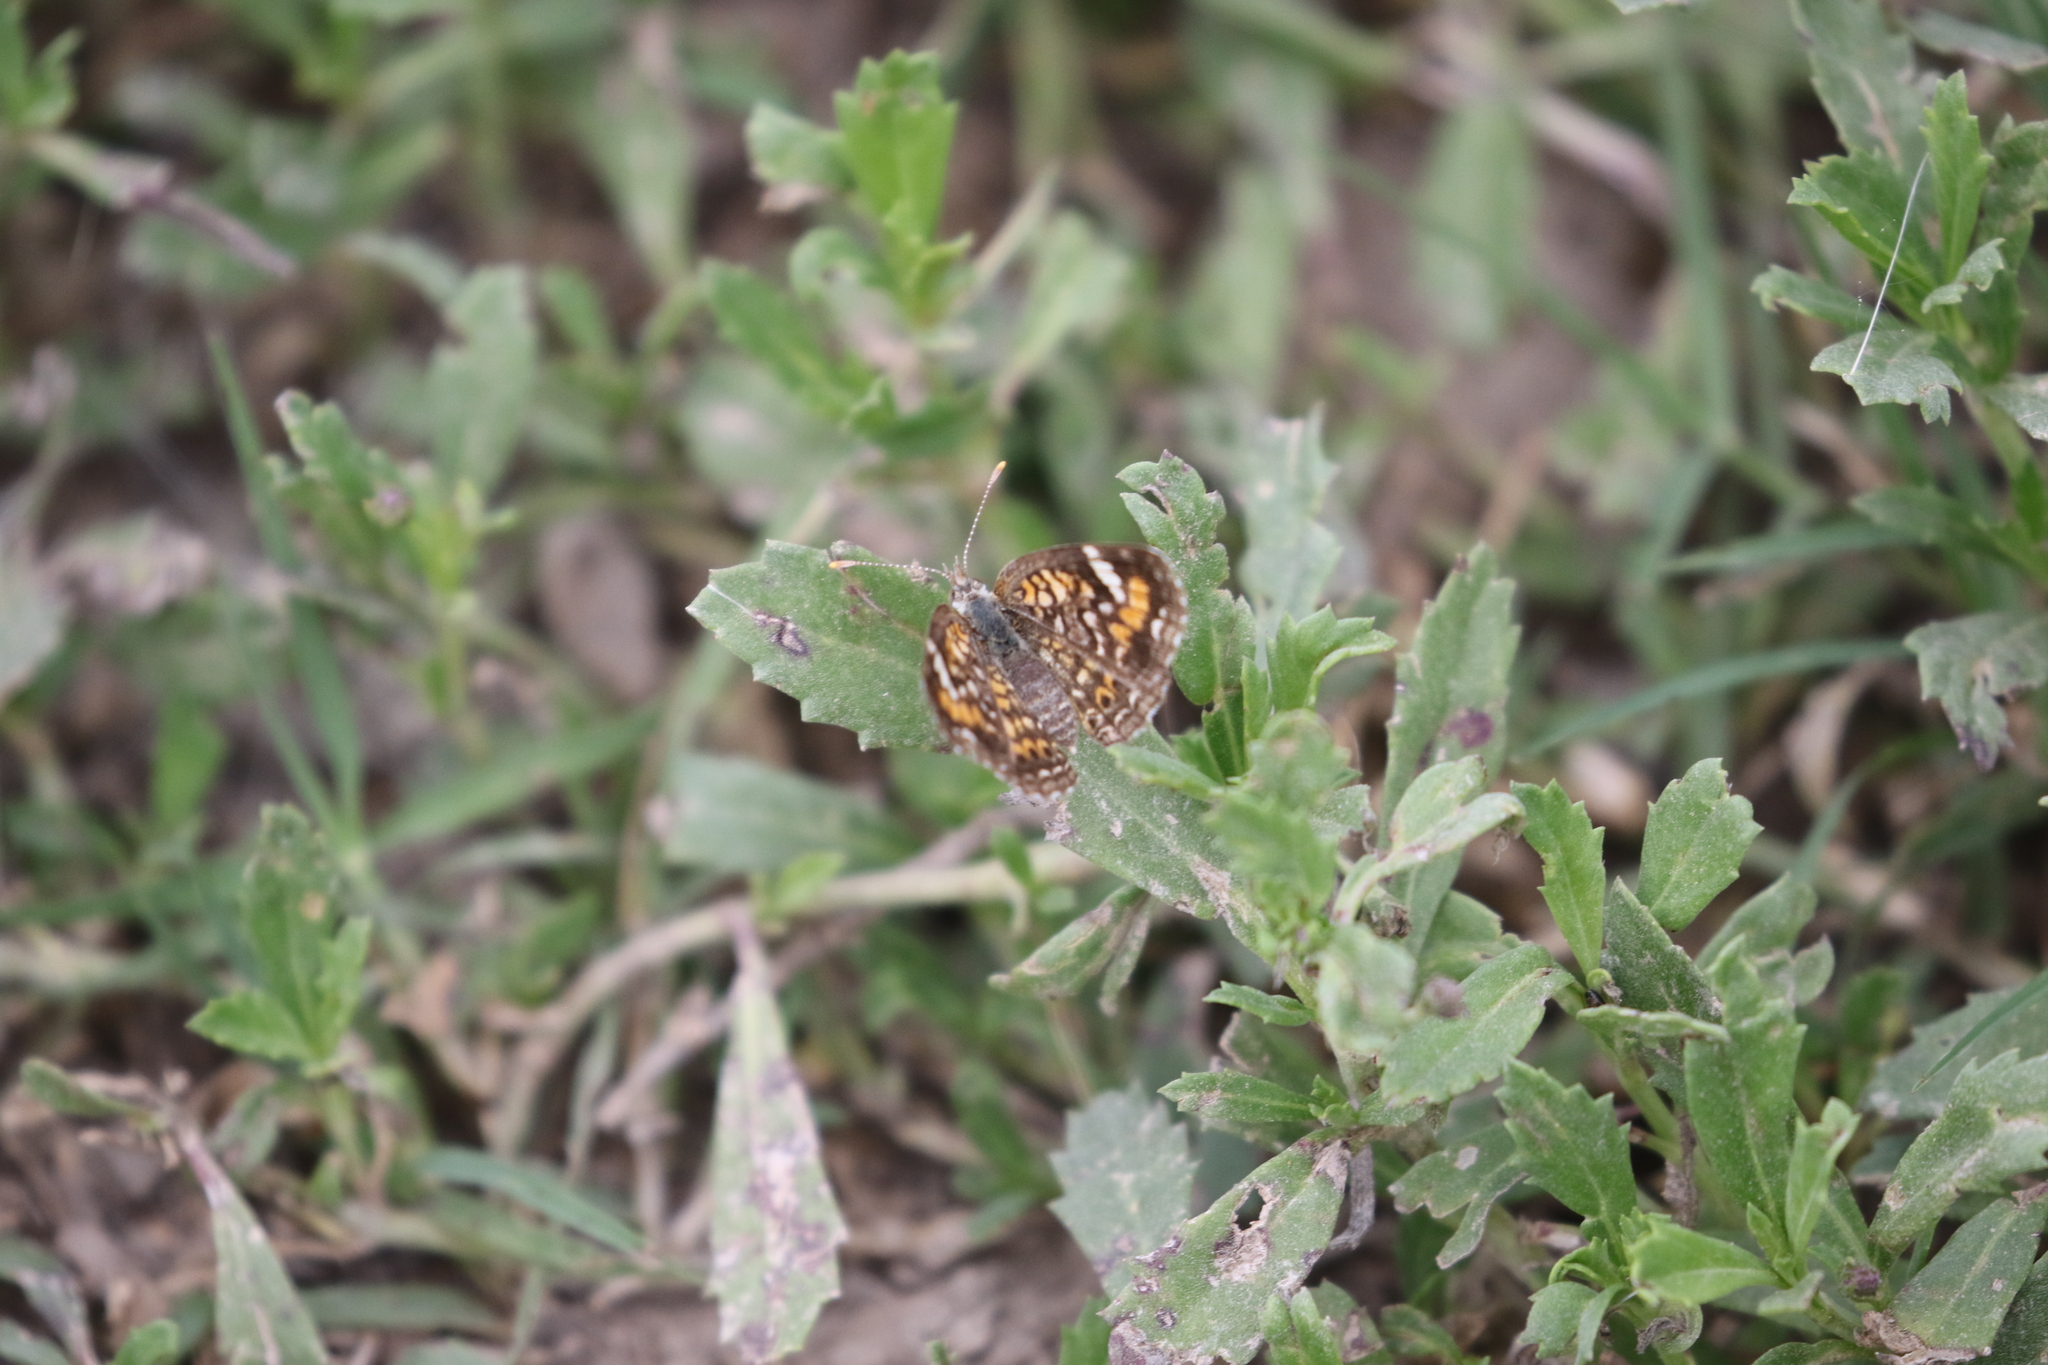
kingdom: Animalia
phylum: Arthropoda
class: Insecta
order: Lepidoptera
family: Nymphalidae
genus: Phyciodes
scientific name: Phyciodes phaon
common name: Phaon crescent
